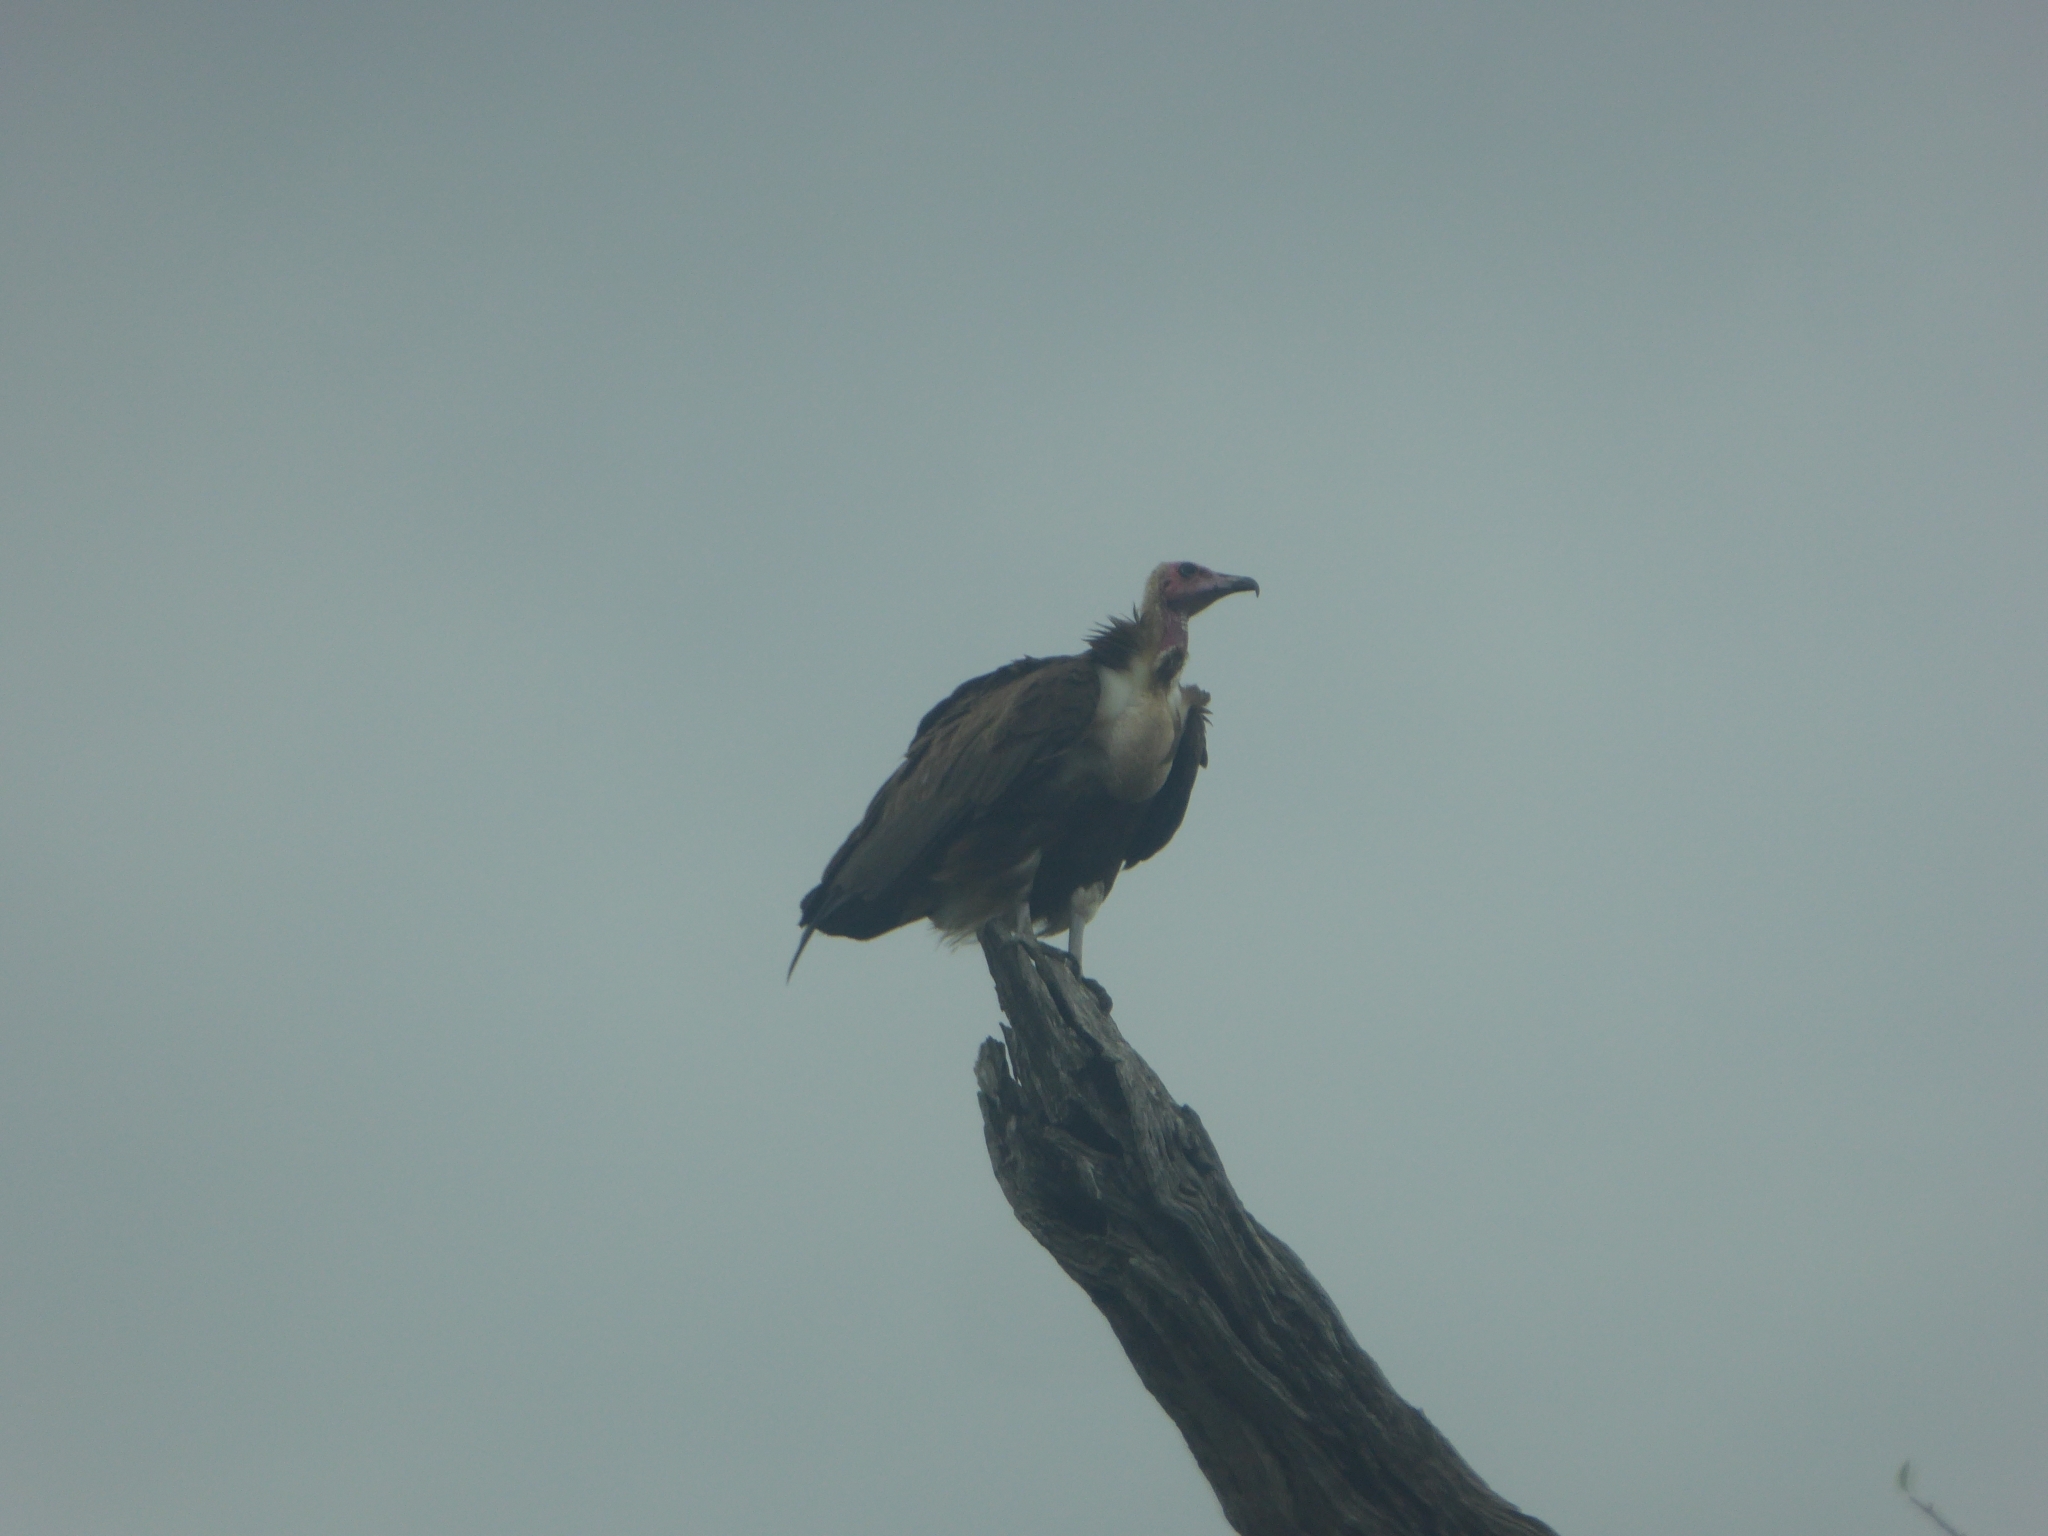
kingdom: Animalia
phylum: Chordata
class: Aves
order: Accipitriformes
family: Accipitridae
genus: Necrosyrtes
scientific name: Necrosyrtes monachus
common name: Hooded vulture
